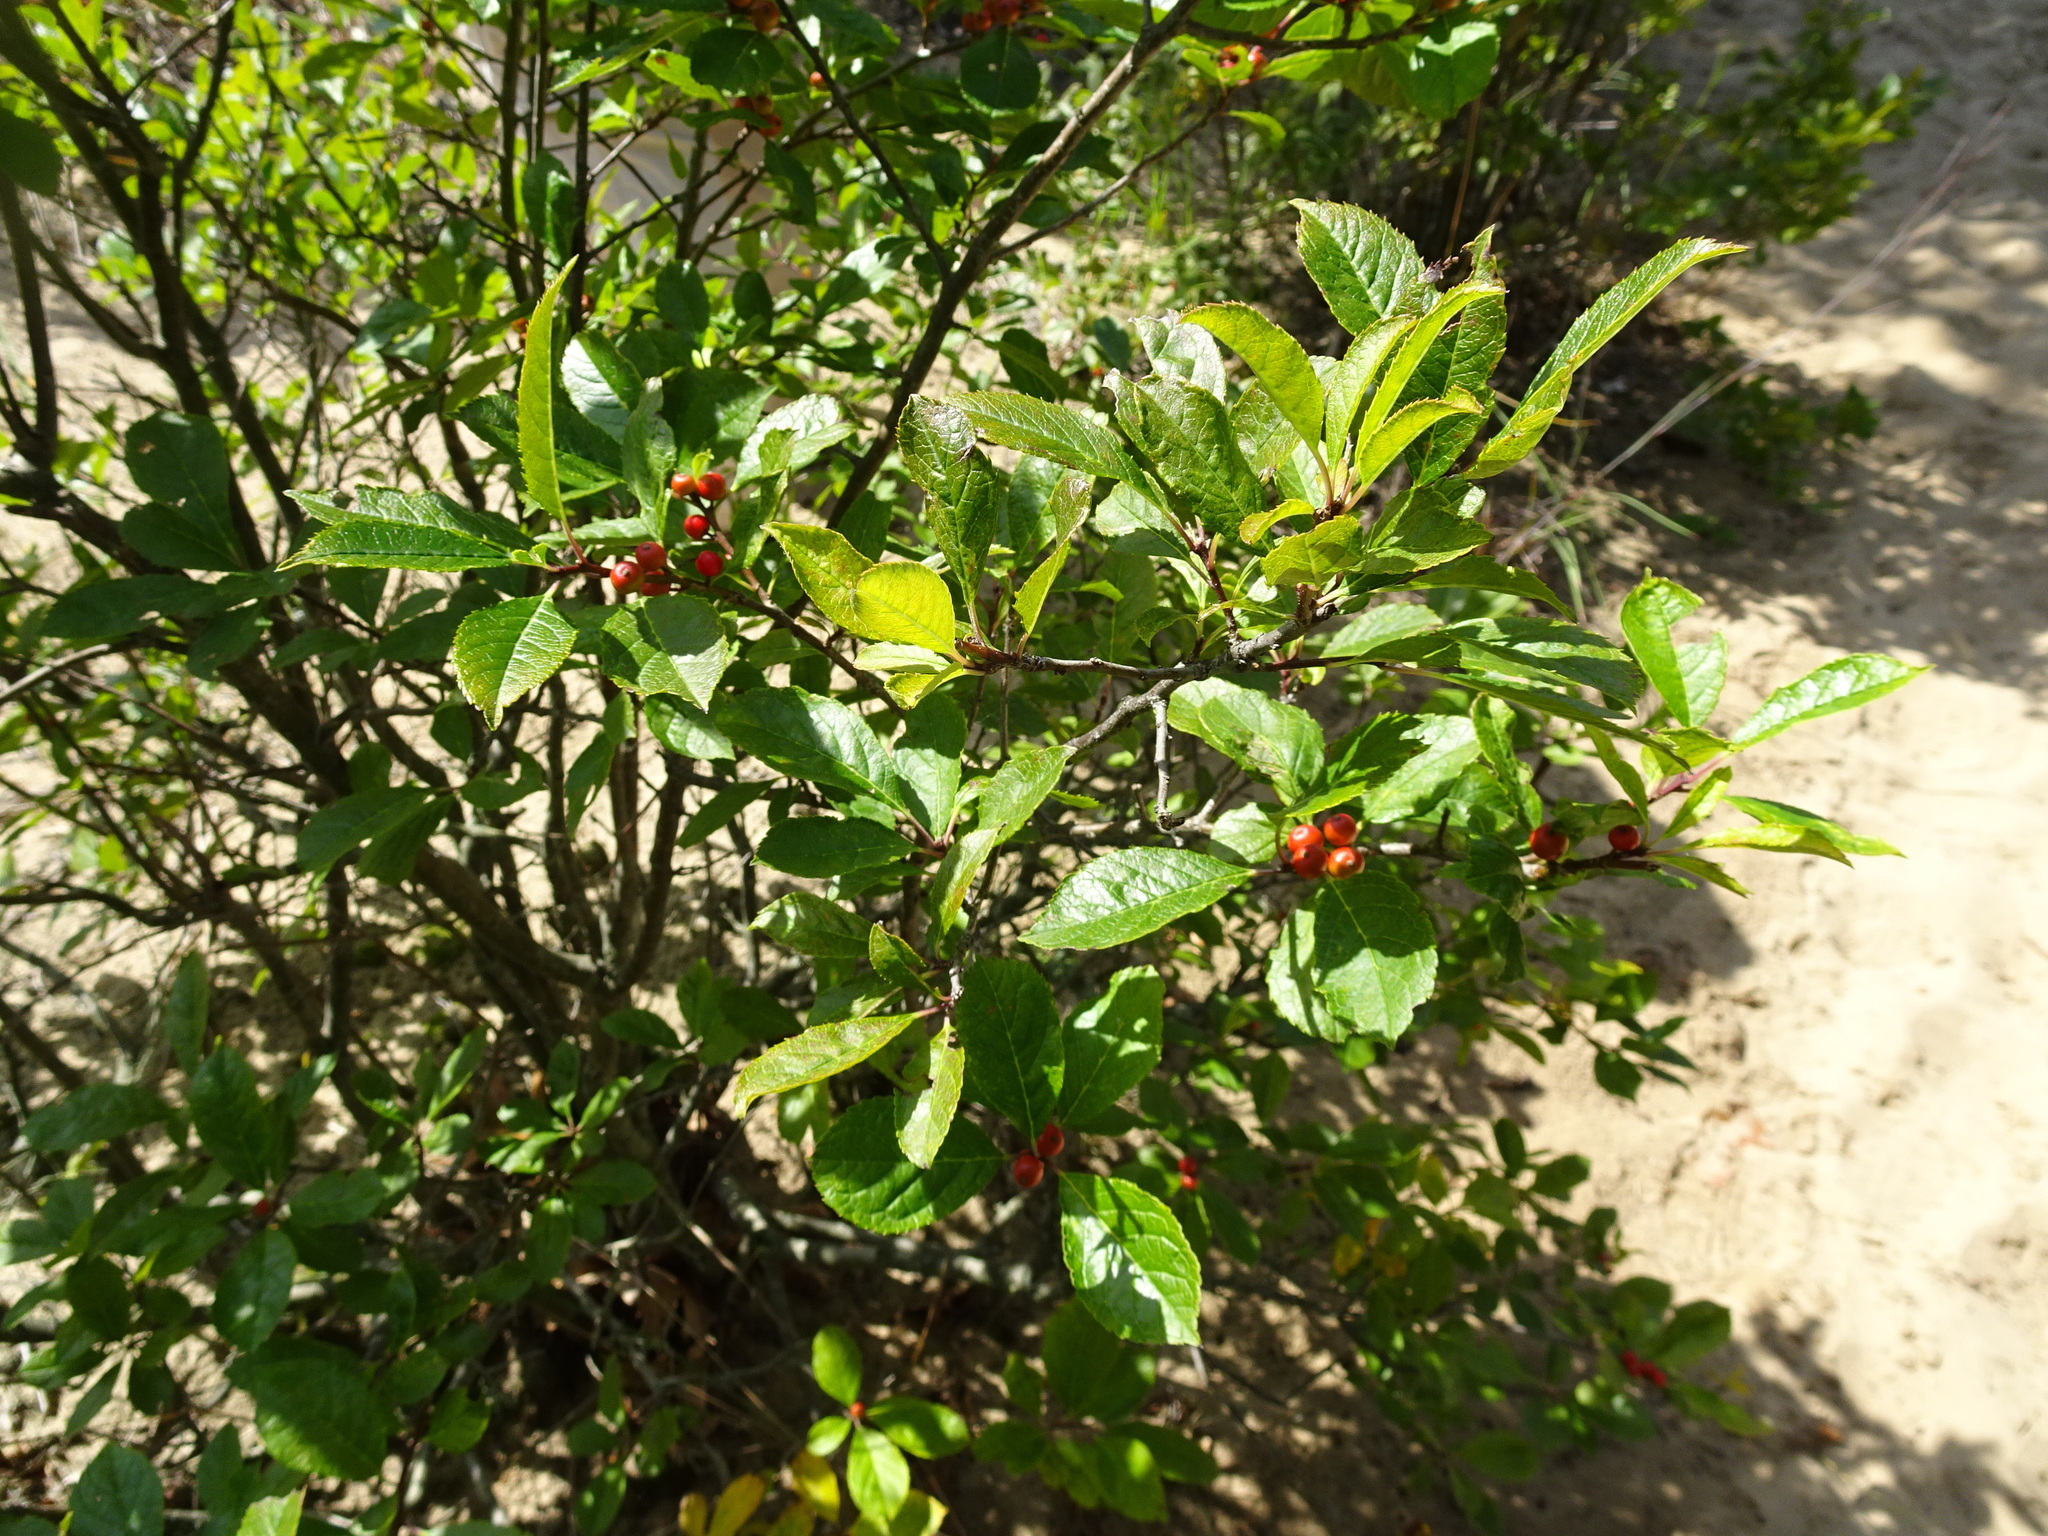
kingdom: Plantae
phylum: Tracheophyta
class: Magnoliopsida
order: Aquifoliales
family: Aquifoliaceae
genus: Ilex
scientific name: Ilex verticillata
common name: Virginia winterberry
